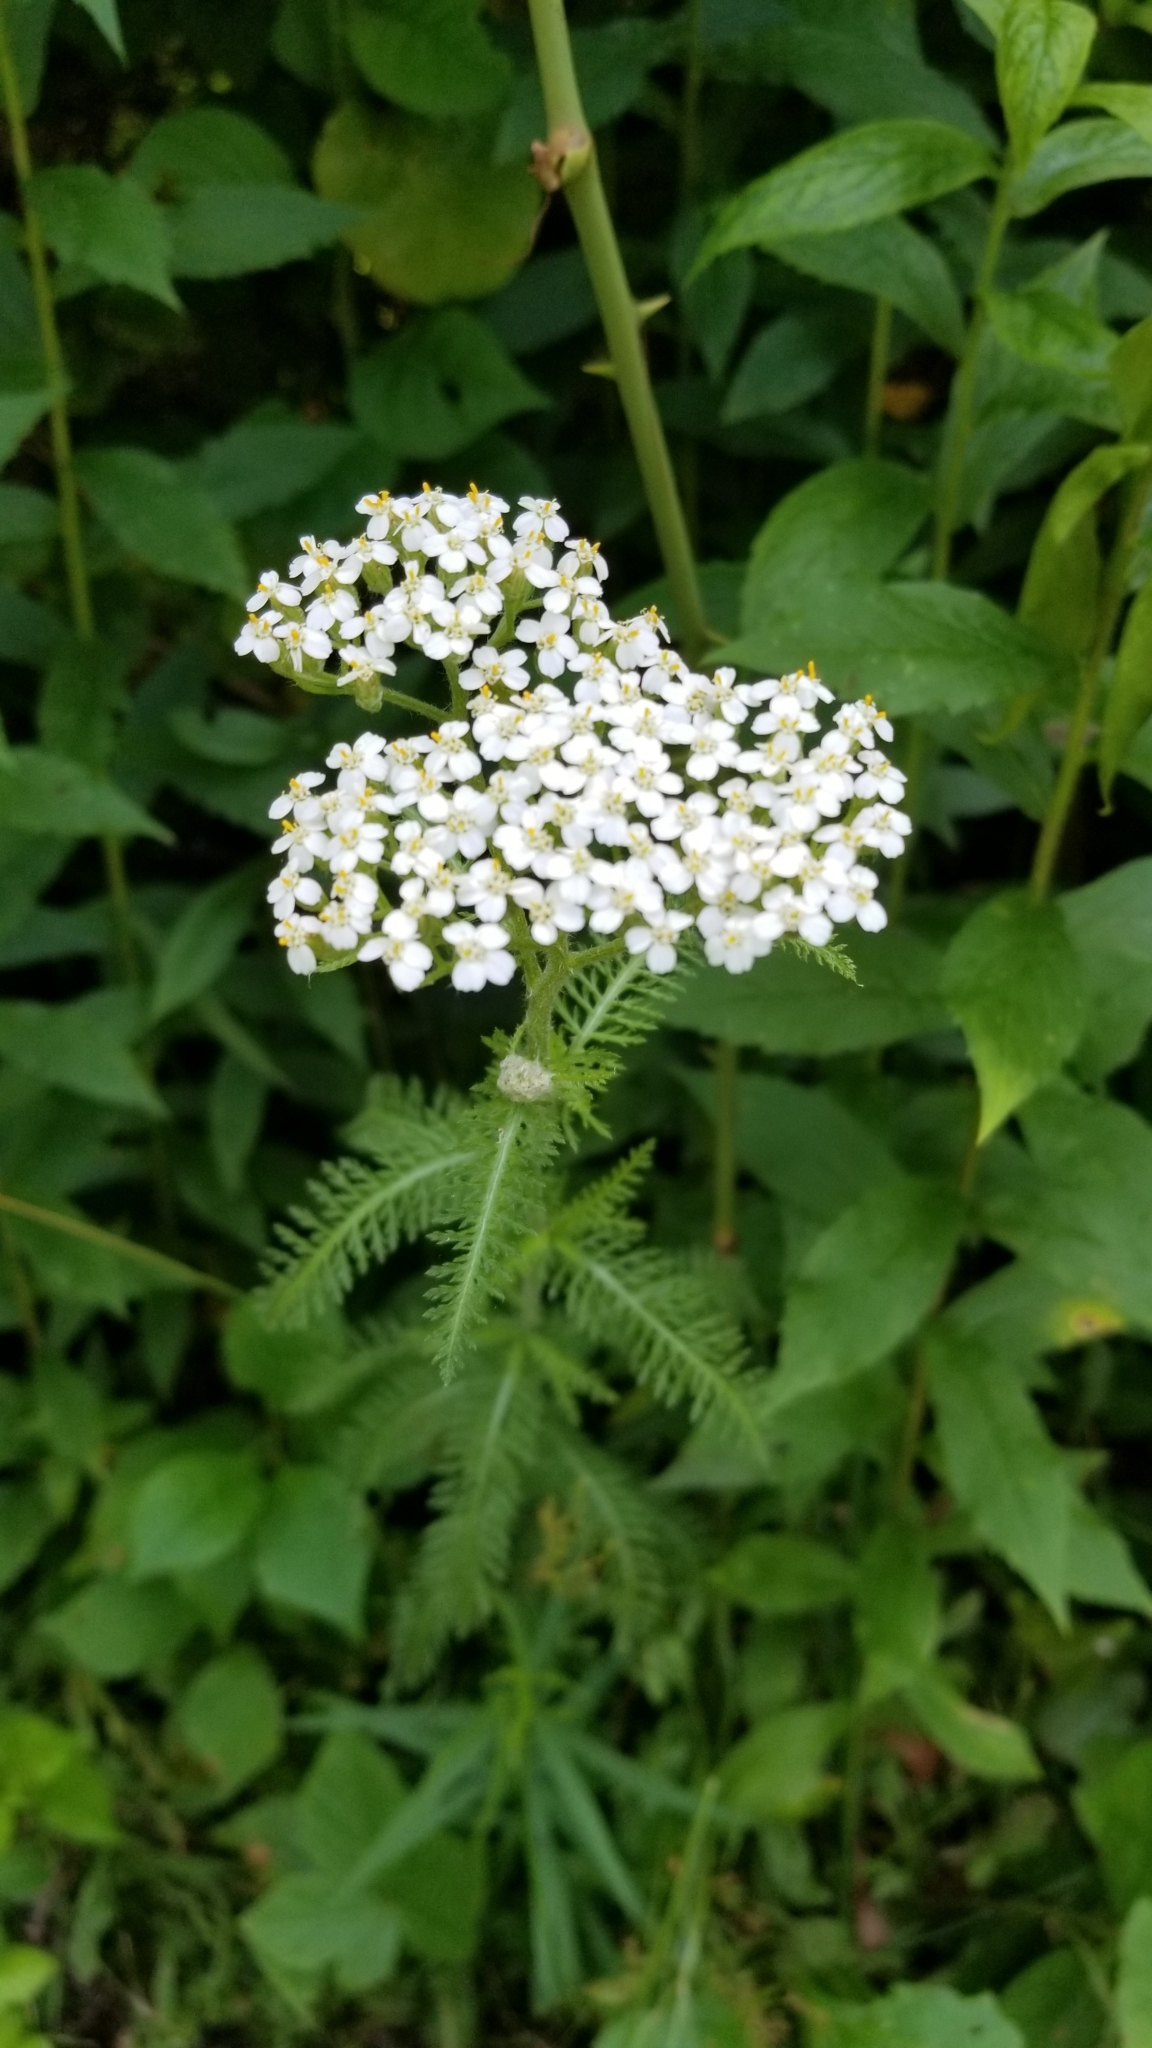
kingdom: Plantae
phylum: Tracheophyta
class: Magnoliopsida
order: Asterales
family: Asteraceae
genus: Achillea
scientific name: Achillea millefolium
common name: Yarrow
